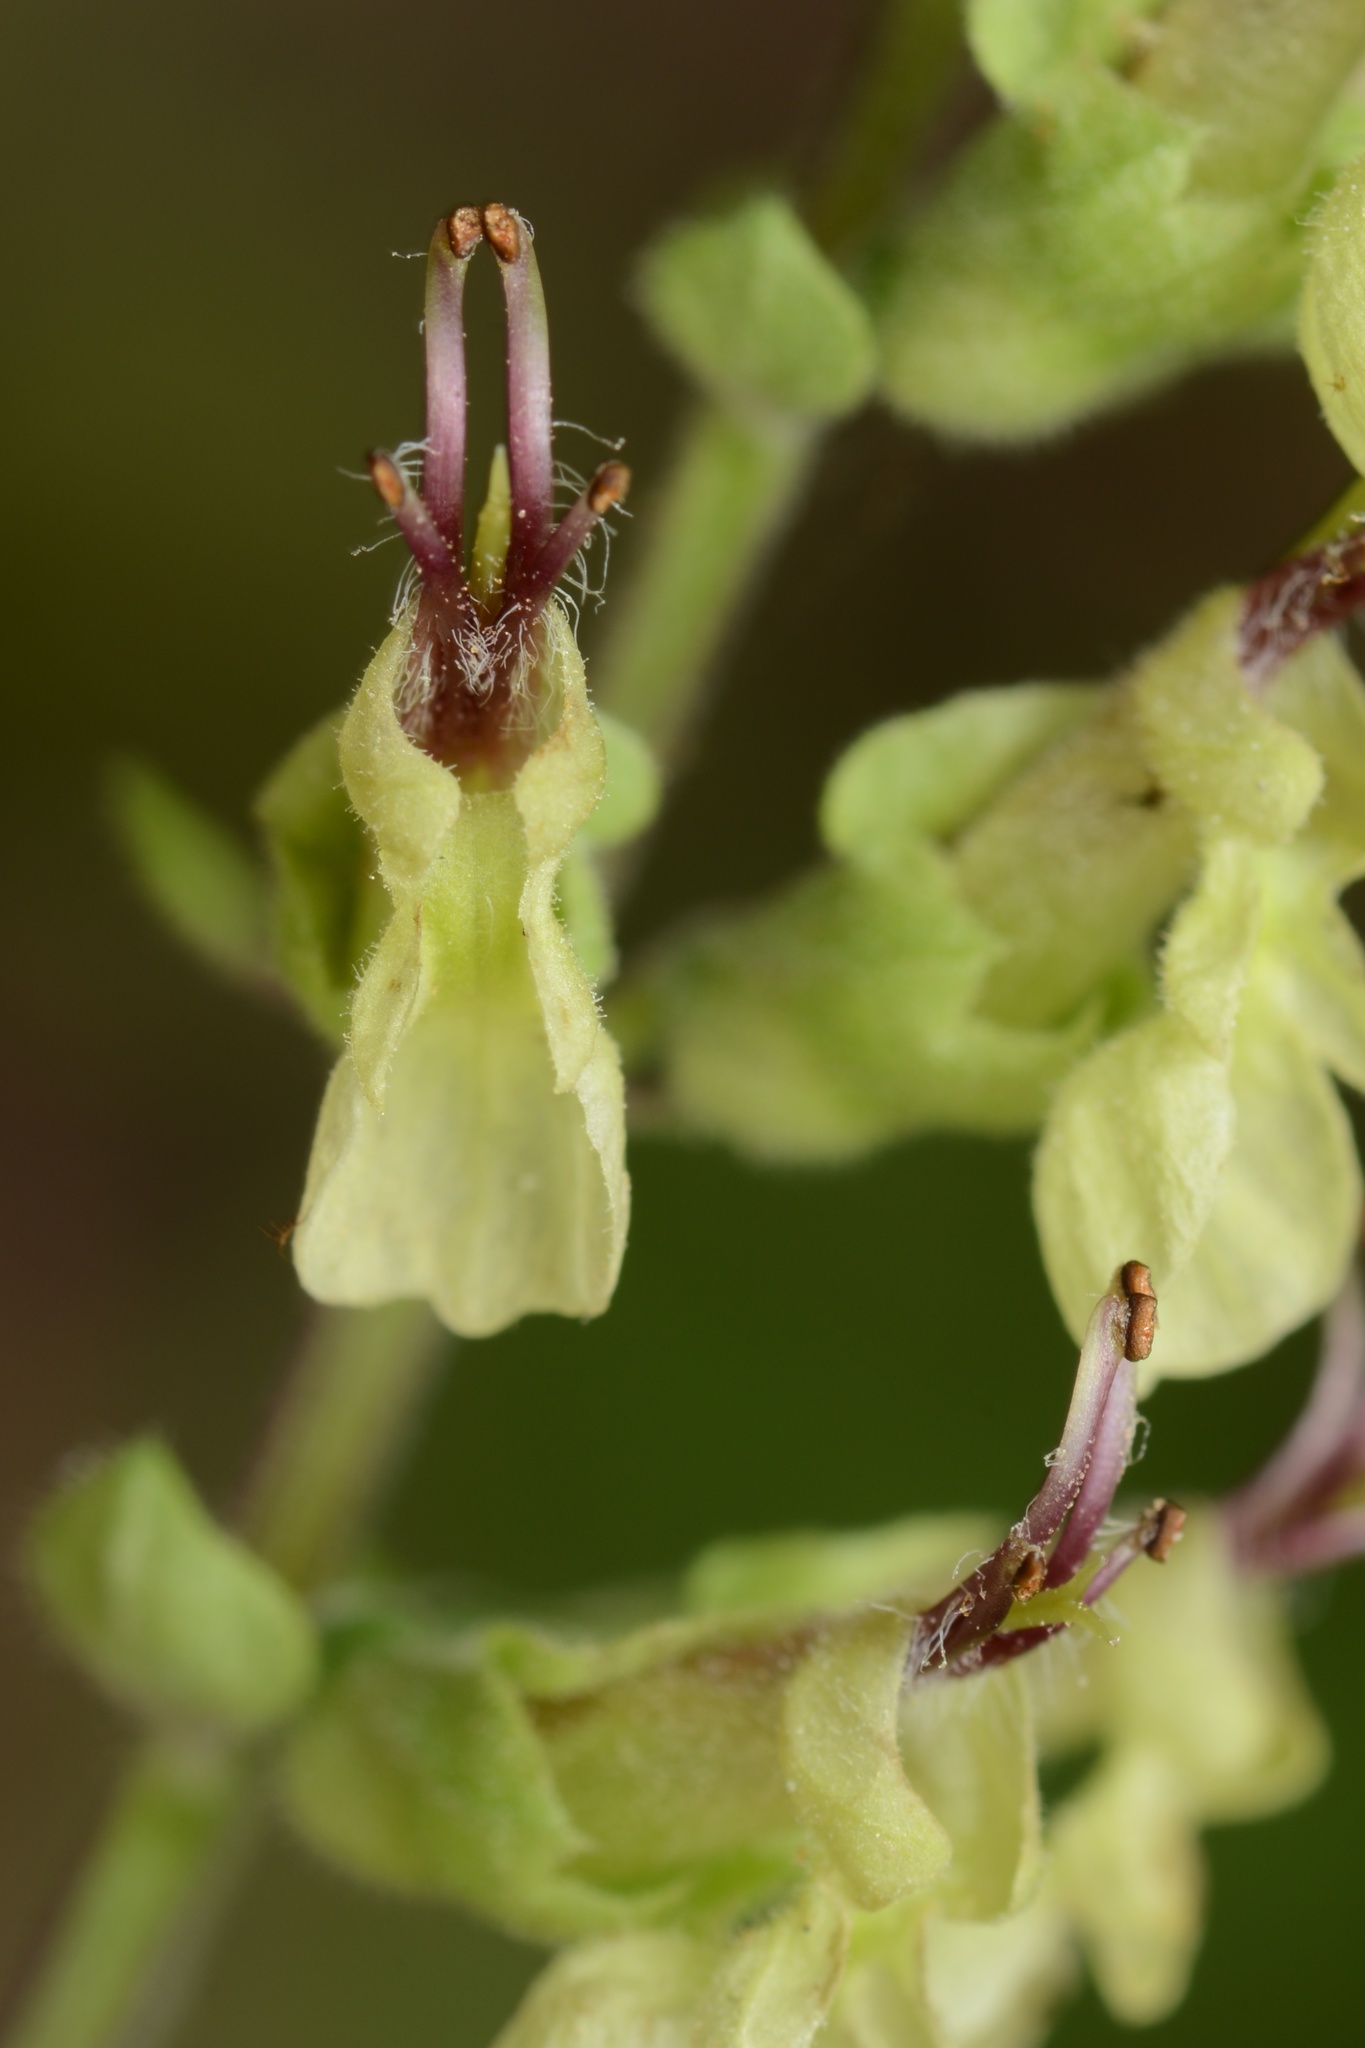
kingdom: Plantae
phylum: Tracheophyta
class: Magnoliopsida
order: Lamiales
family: Lamiaceae
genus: Teucrium
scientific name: Teucrium scorodonia
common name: Woodland germander
